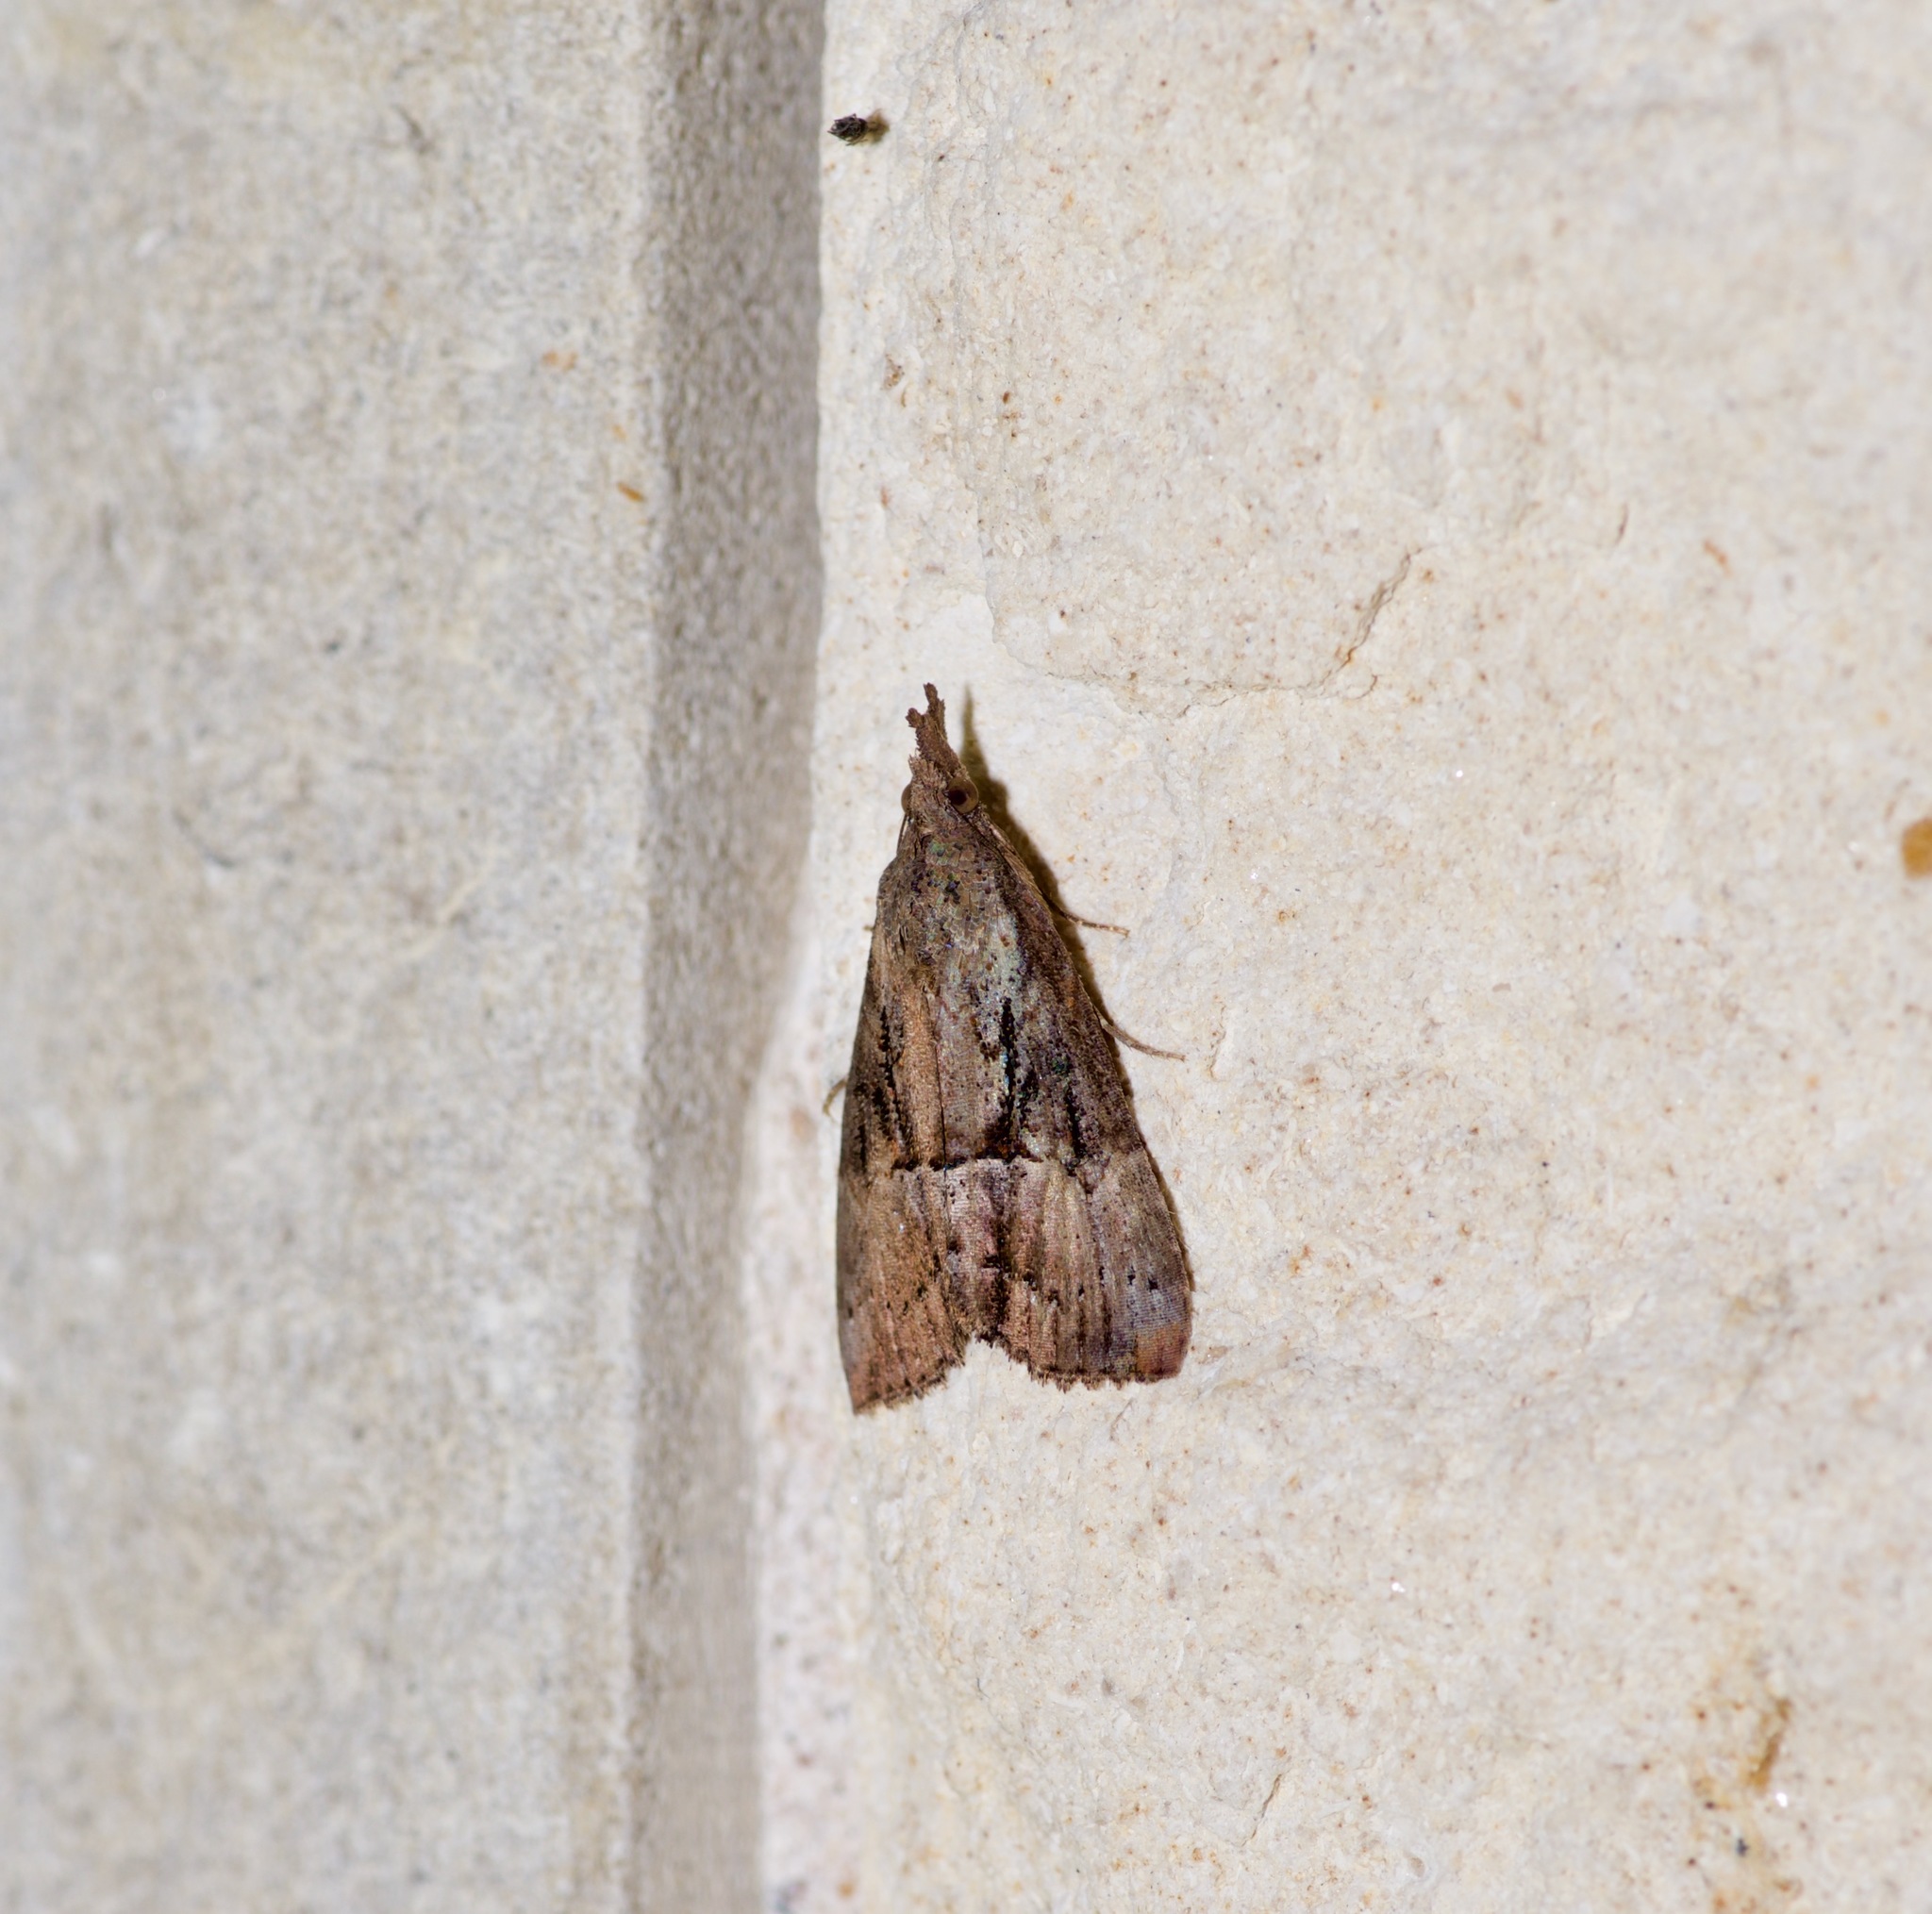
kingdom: Animalia
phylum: Arthropoda
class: Insecta
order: Lepidoptera
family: Erebidae
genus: Hypena
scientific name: Hypena scabra
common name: Green cloverworm
